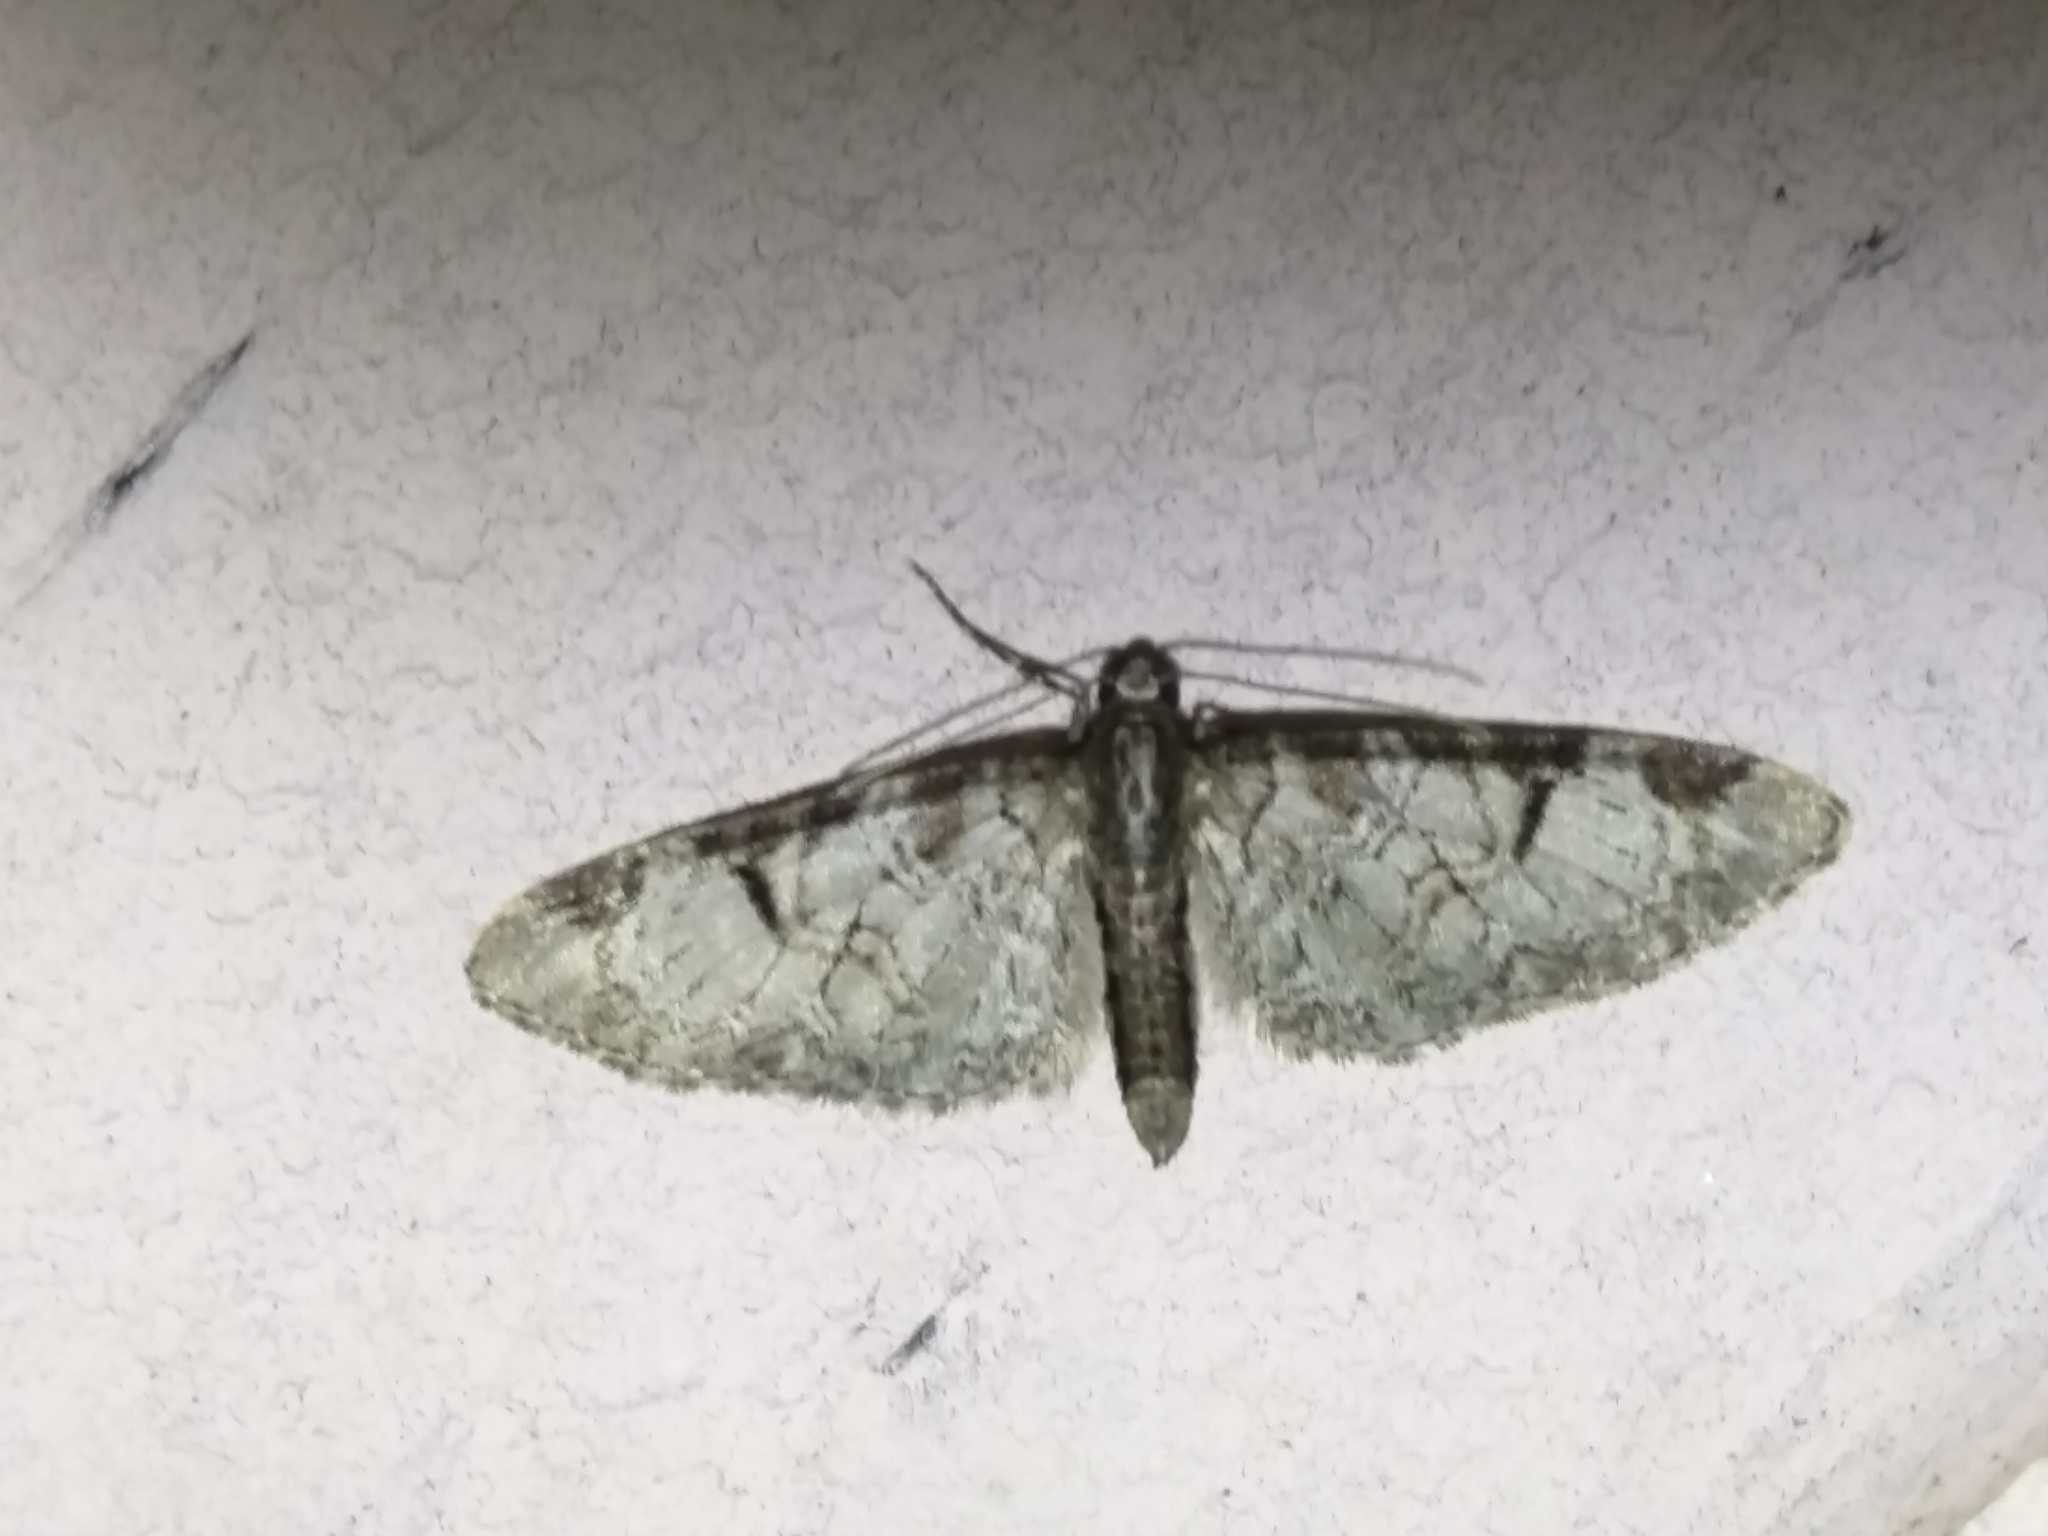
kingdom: Animalia
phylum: Arthropoda
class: Insecta
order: Lepidoptera
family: Geometridae
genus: Eupithecia
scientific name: Eupithecia insigniata
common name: Pinion-spotted pug
